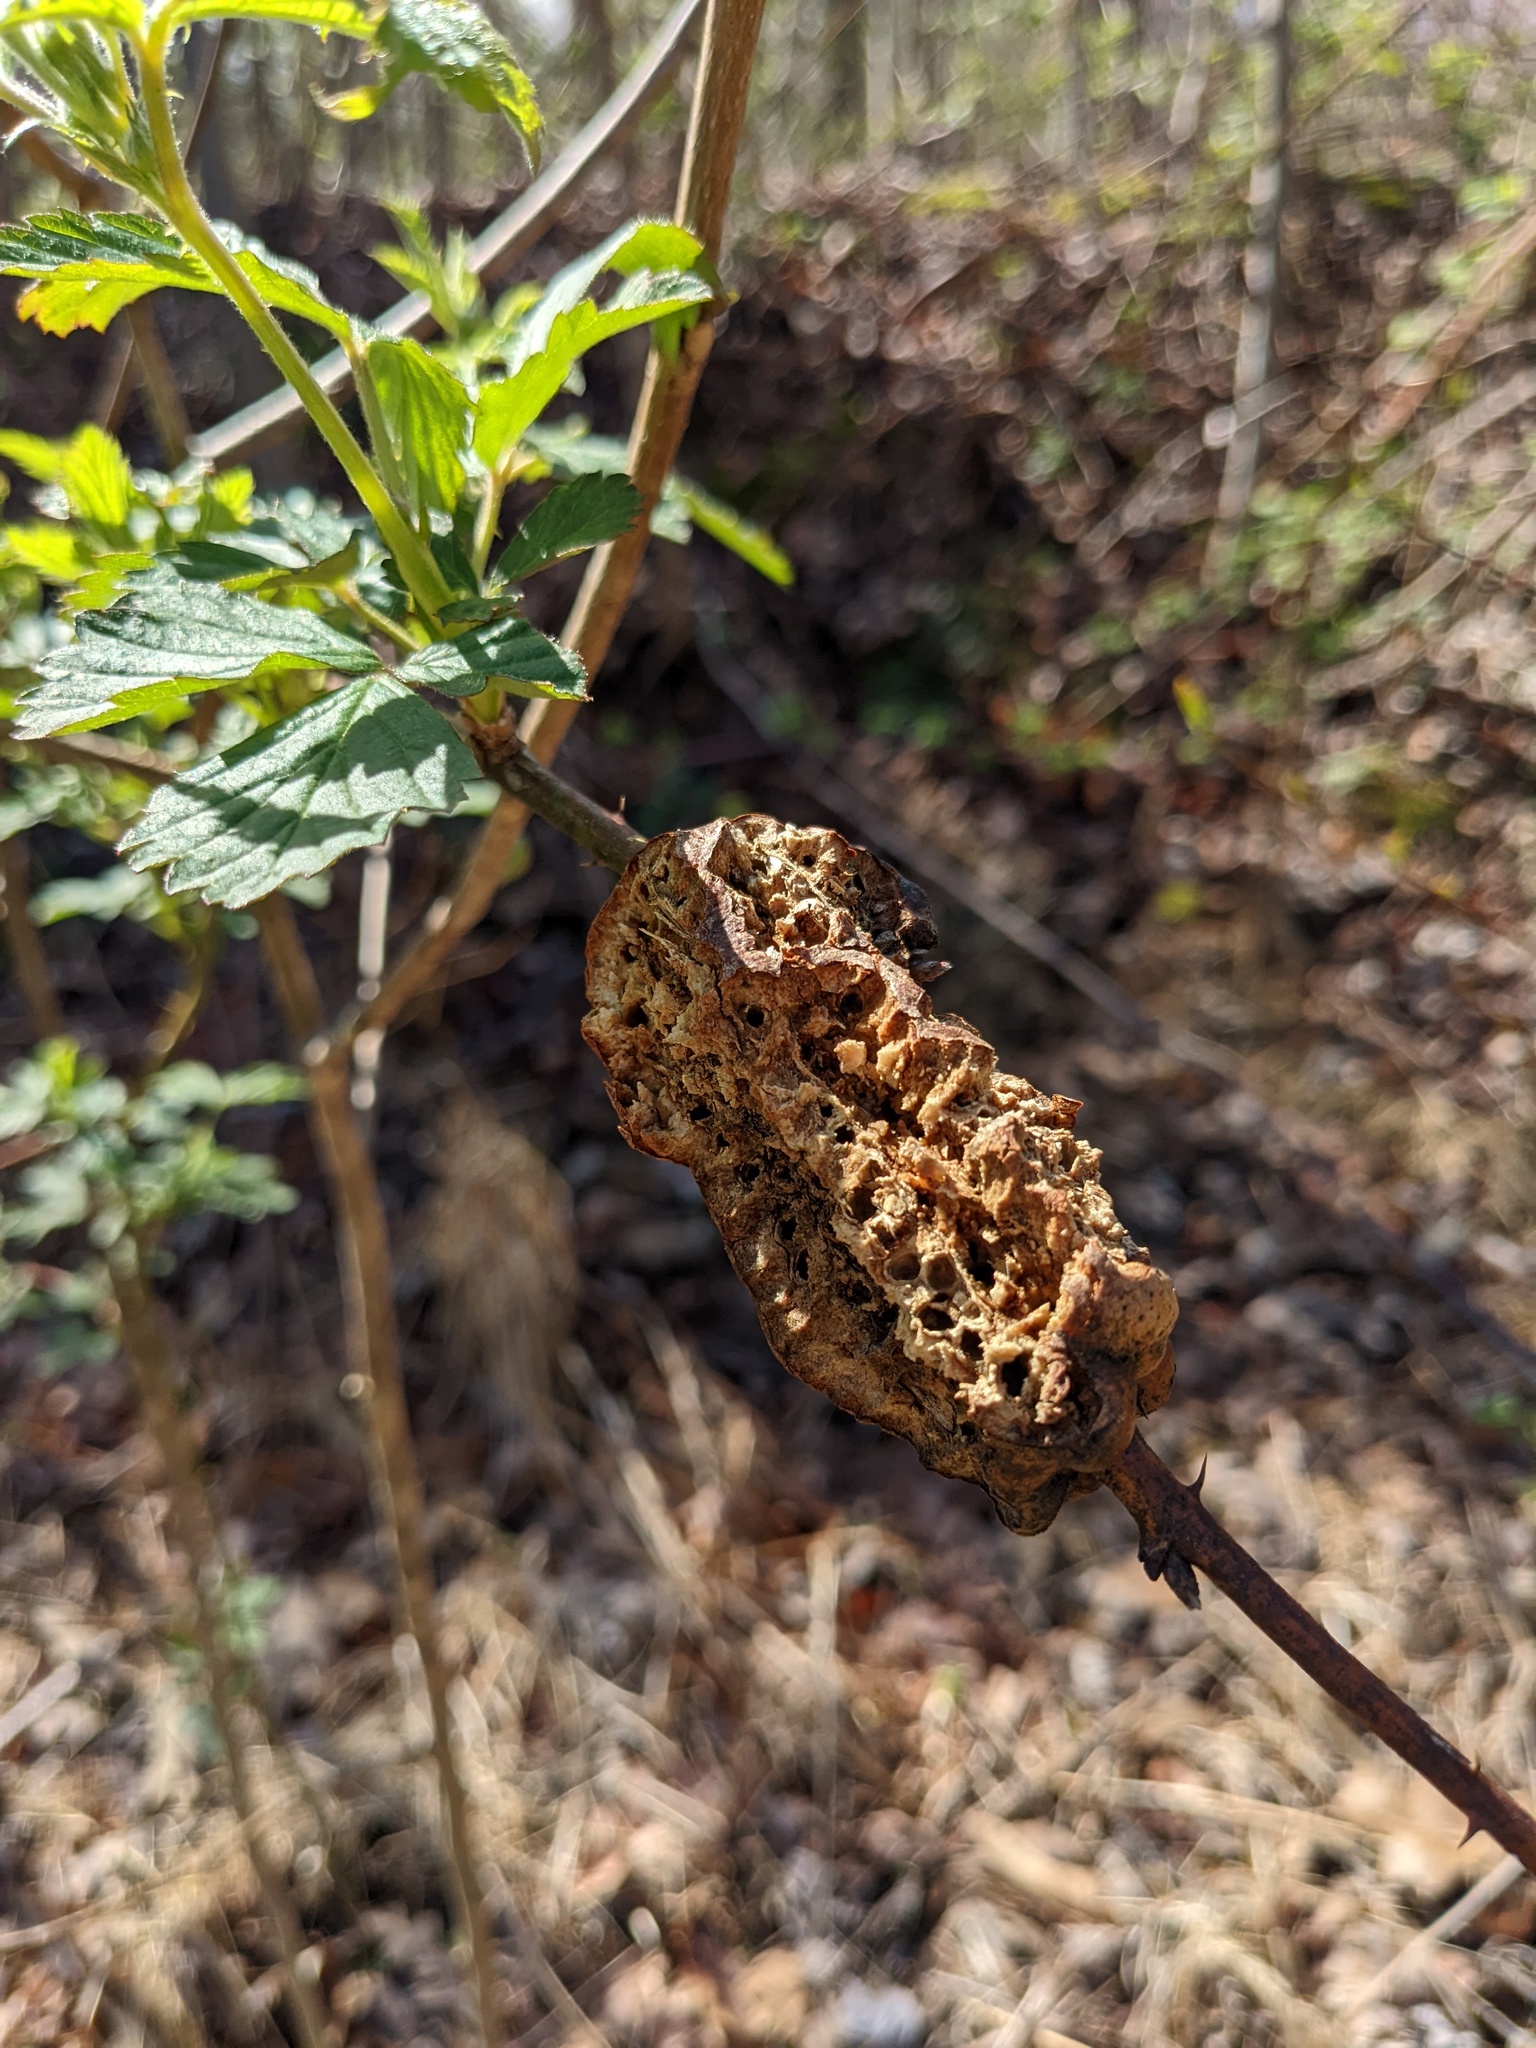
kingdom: Animalia
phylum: Arthropoda
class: Insecta
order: Hymenoptera
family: Cynipidae
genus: Diastrophus
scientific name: Diastrophus
